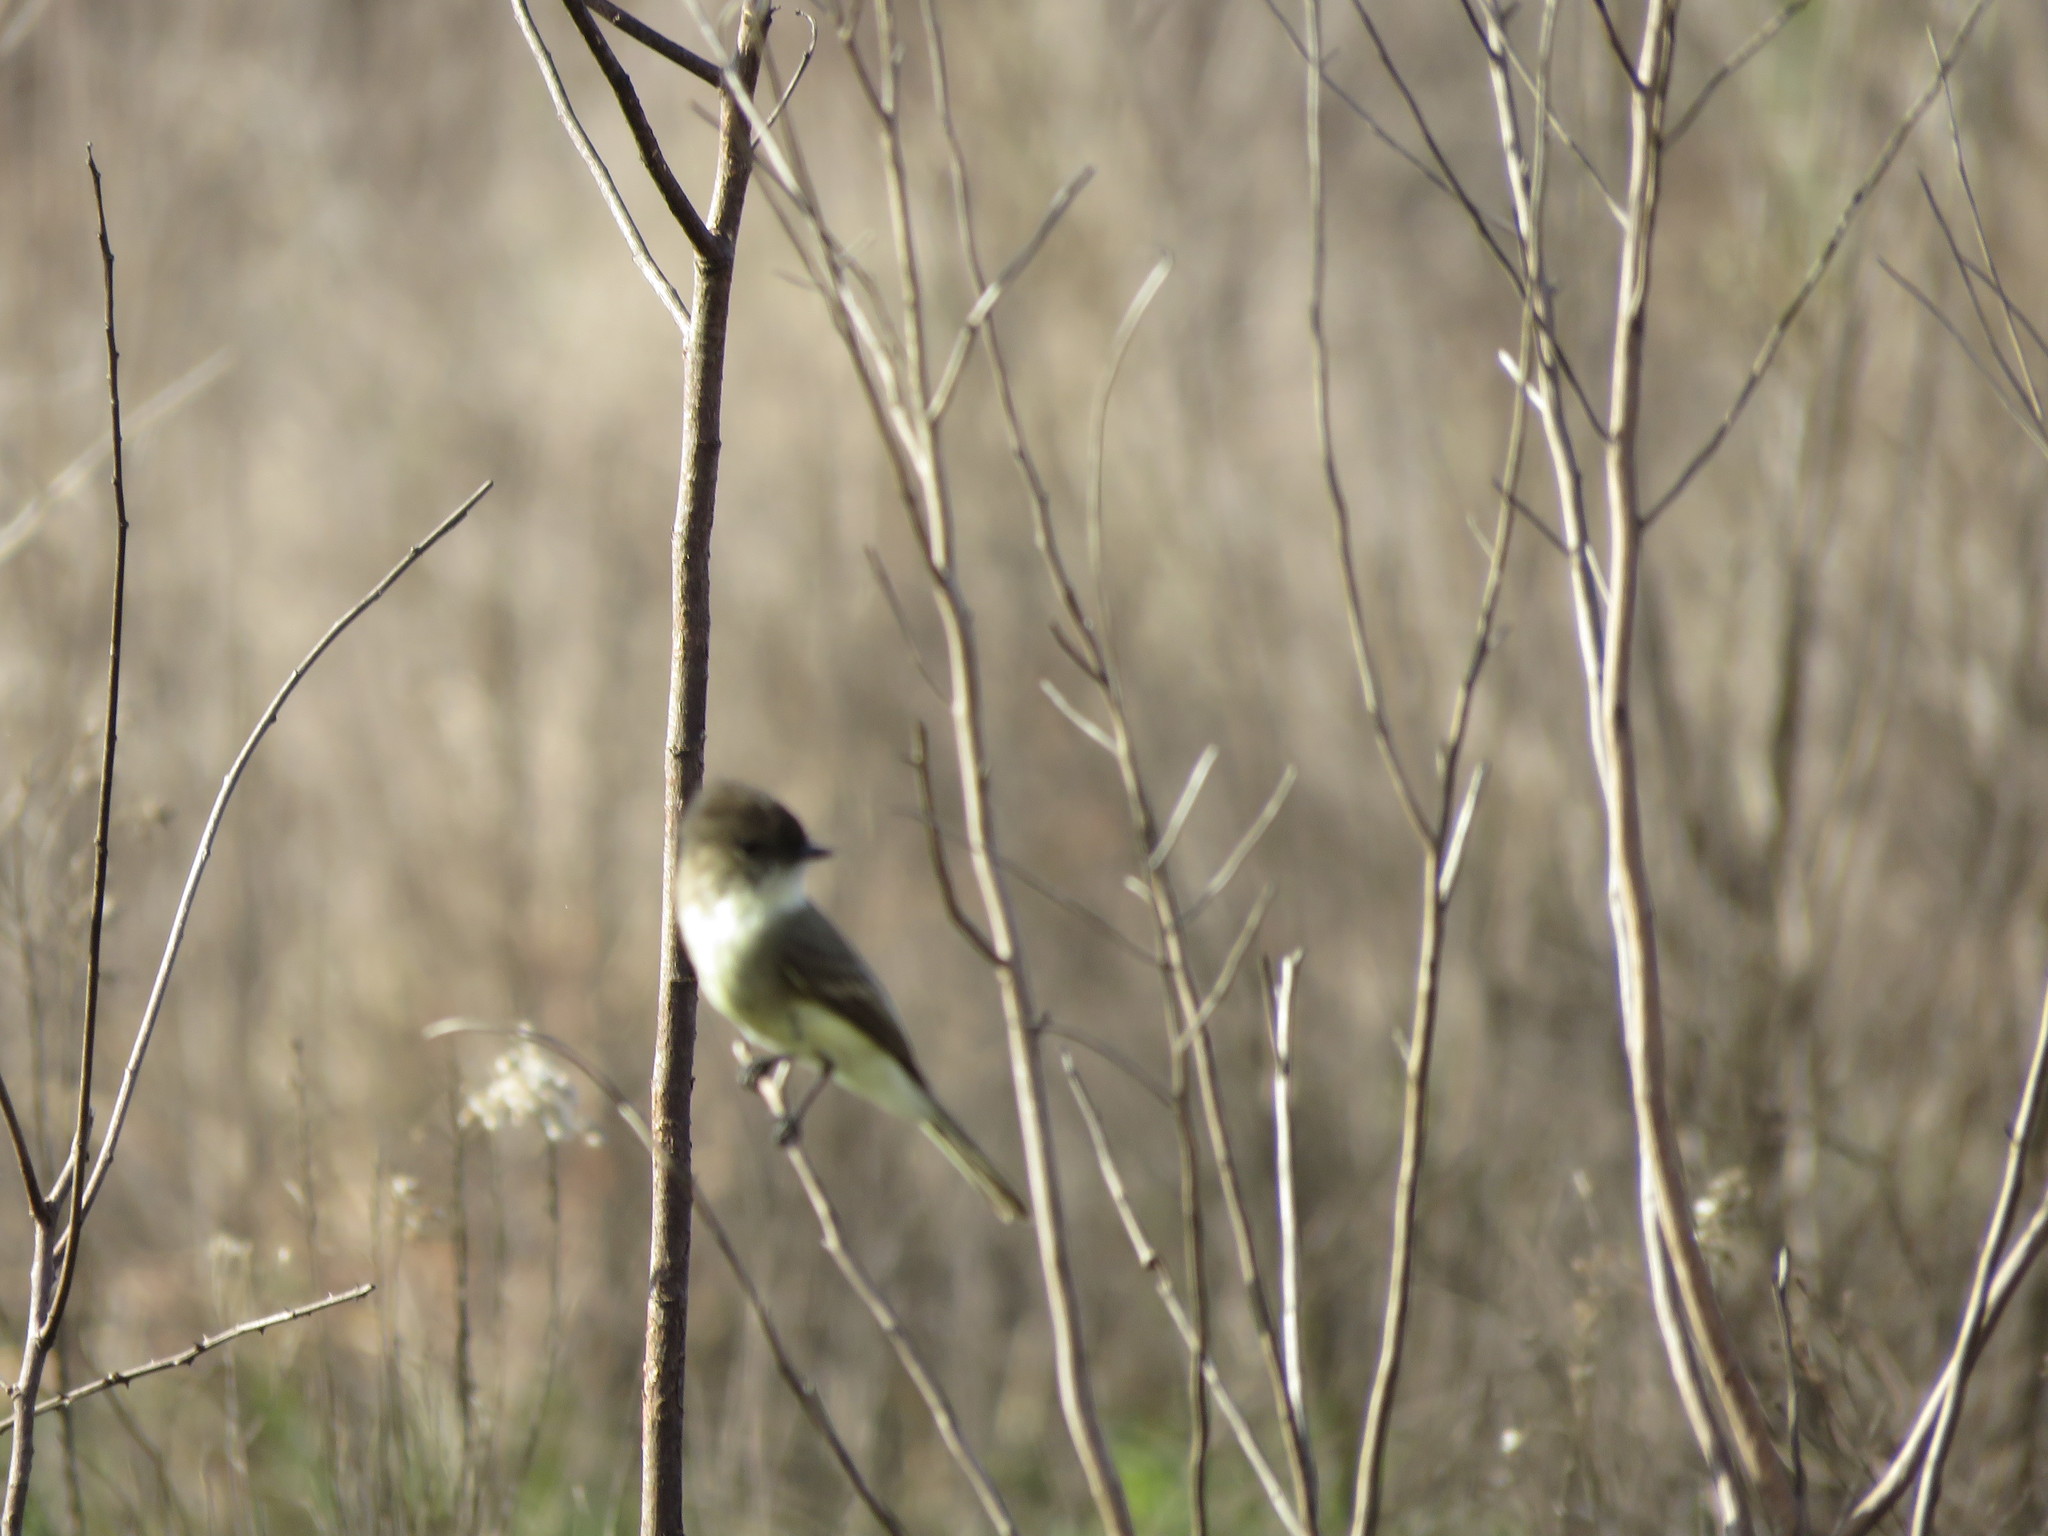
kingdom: Animalia
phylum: Chordata
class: Aves
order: Passeriformes
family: Tyrannidae
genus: Sayornis
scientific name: Sayornis phoebe
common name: Eastern phoebe
